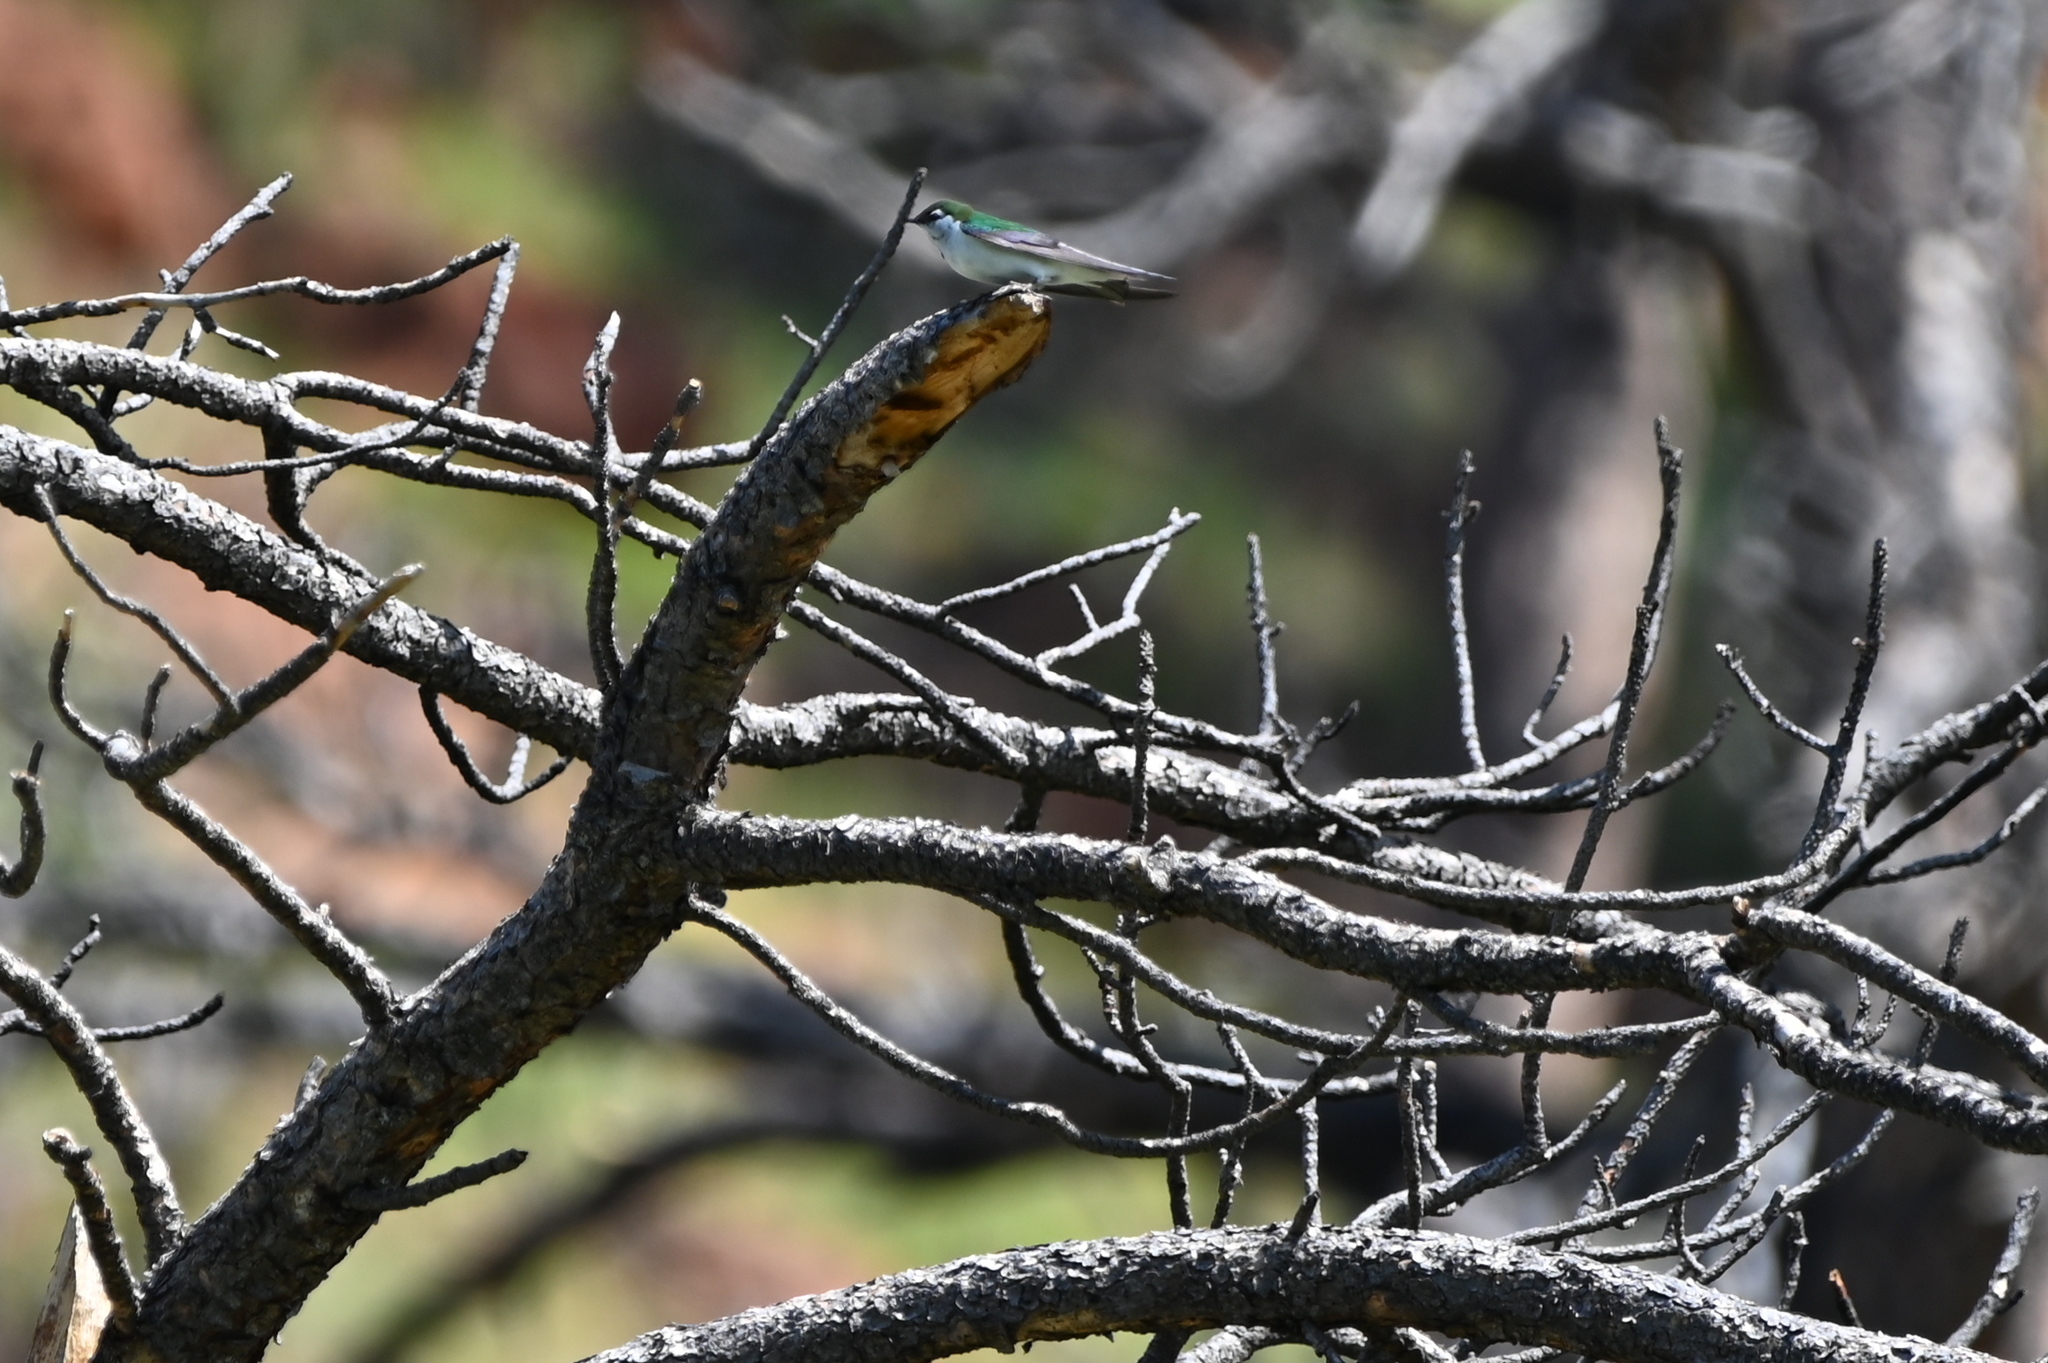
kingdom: Animalia
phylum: Chordata
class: Aves
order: Passeriformes
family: Hirundinidae
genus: Tachycineta
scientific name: Tachycineta thalassina
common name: Violet-green swallow
